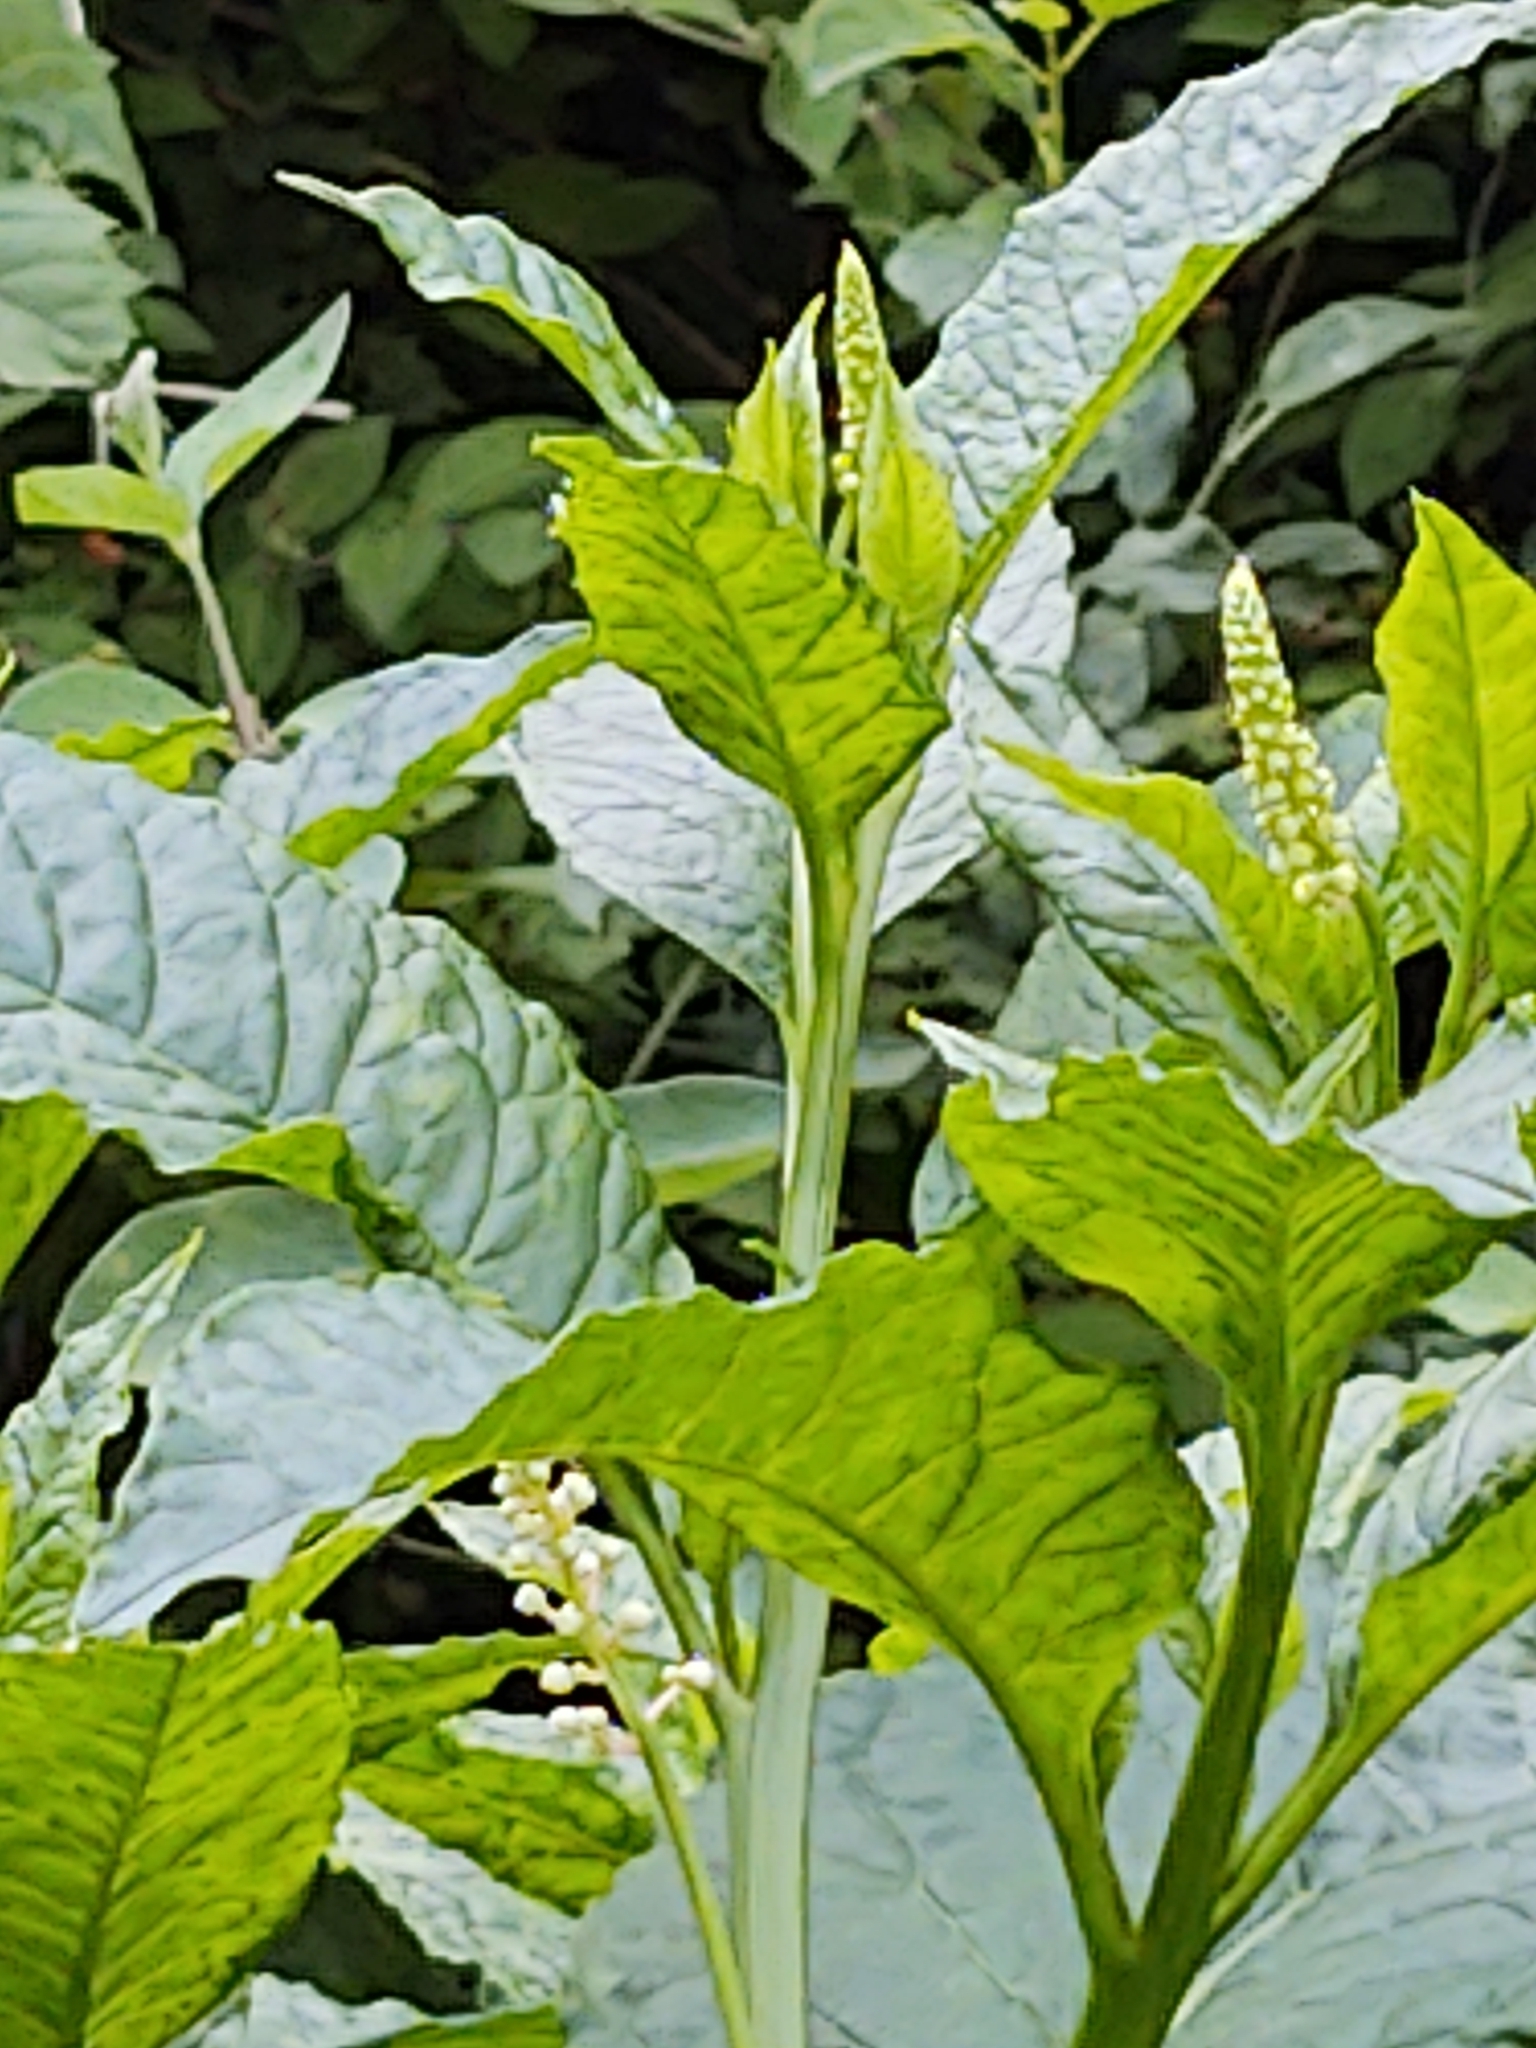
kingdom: Plantae
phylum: Tracheophyta
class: Magnoliopsida
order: Caryophyllales
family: Phytolaccaceae
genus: Phytolacca
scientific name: Phytolacca americana
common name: American pokeweed
